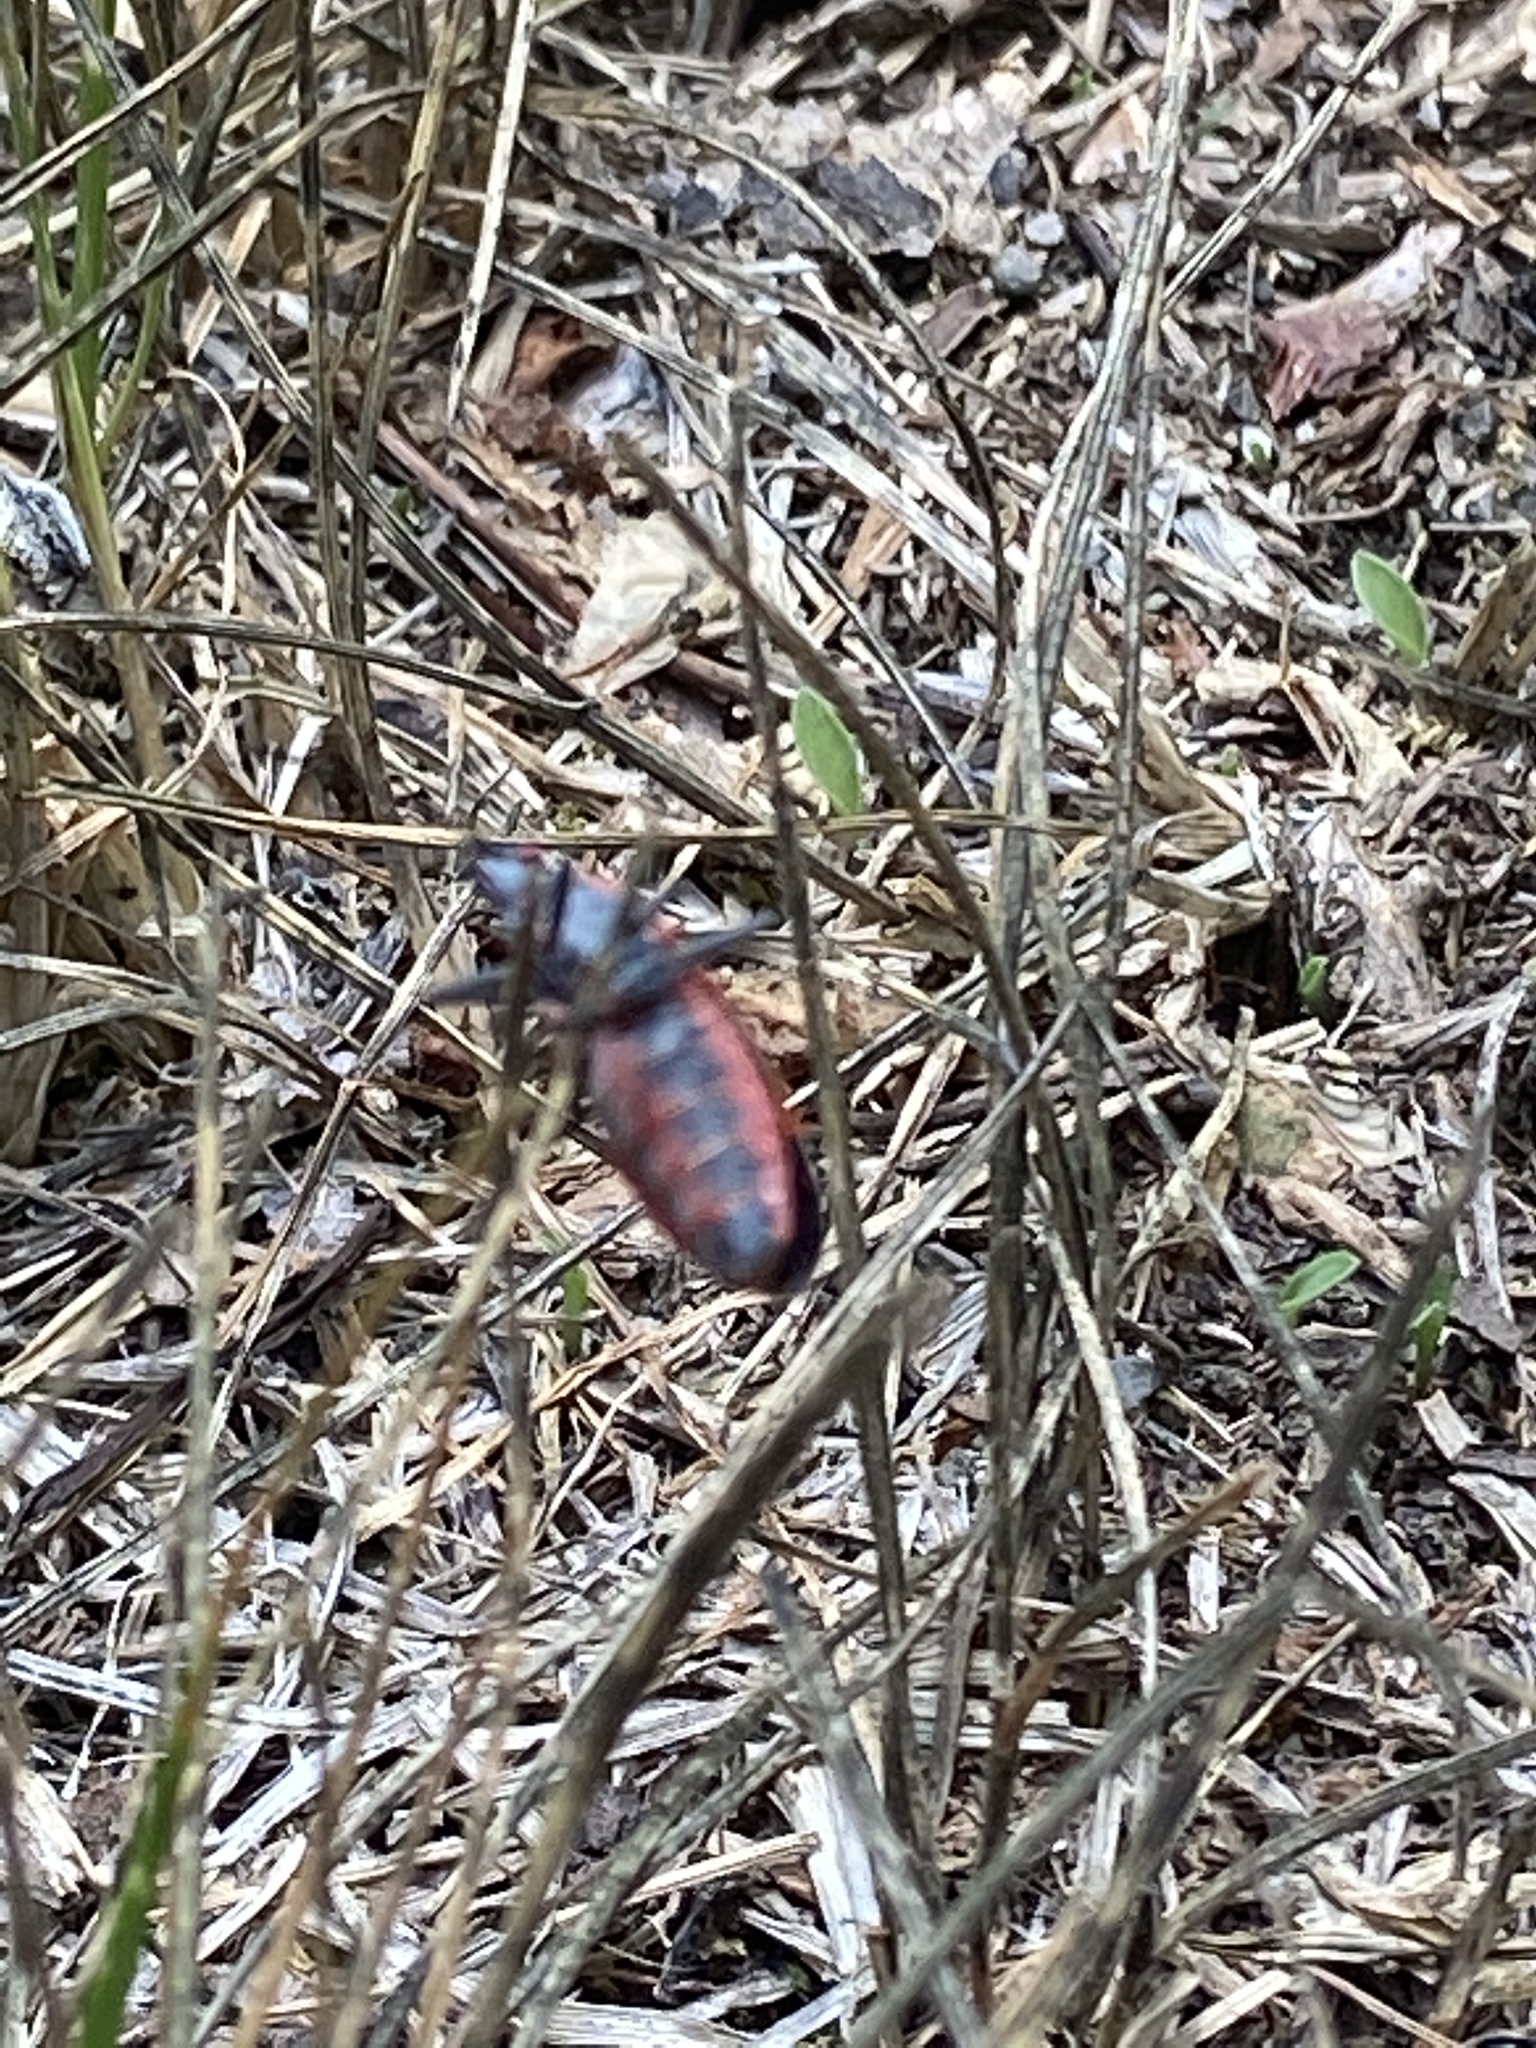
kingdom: Animalia
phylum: Arthropoda
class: Insecta
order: Hemiptera
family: Rhopalidae
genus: Boisea
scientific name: Boisea trivittata
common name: Boxelder bug
